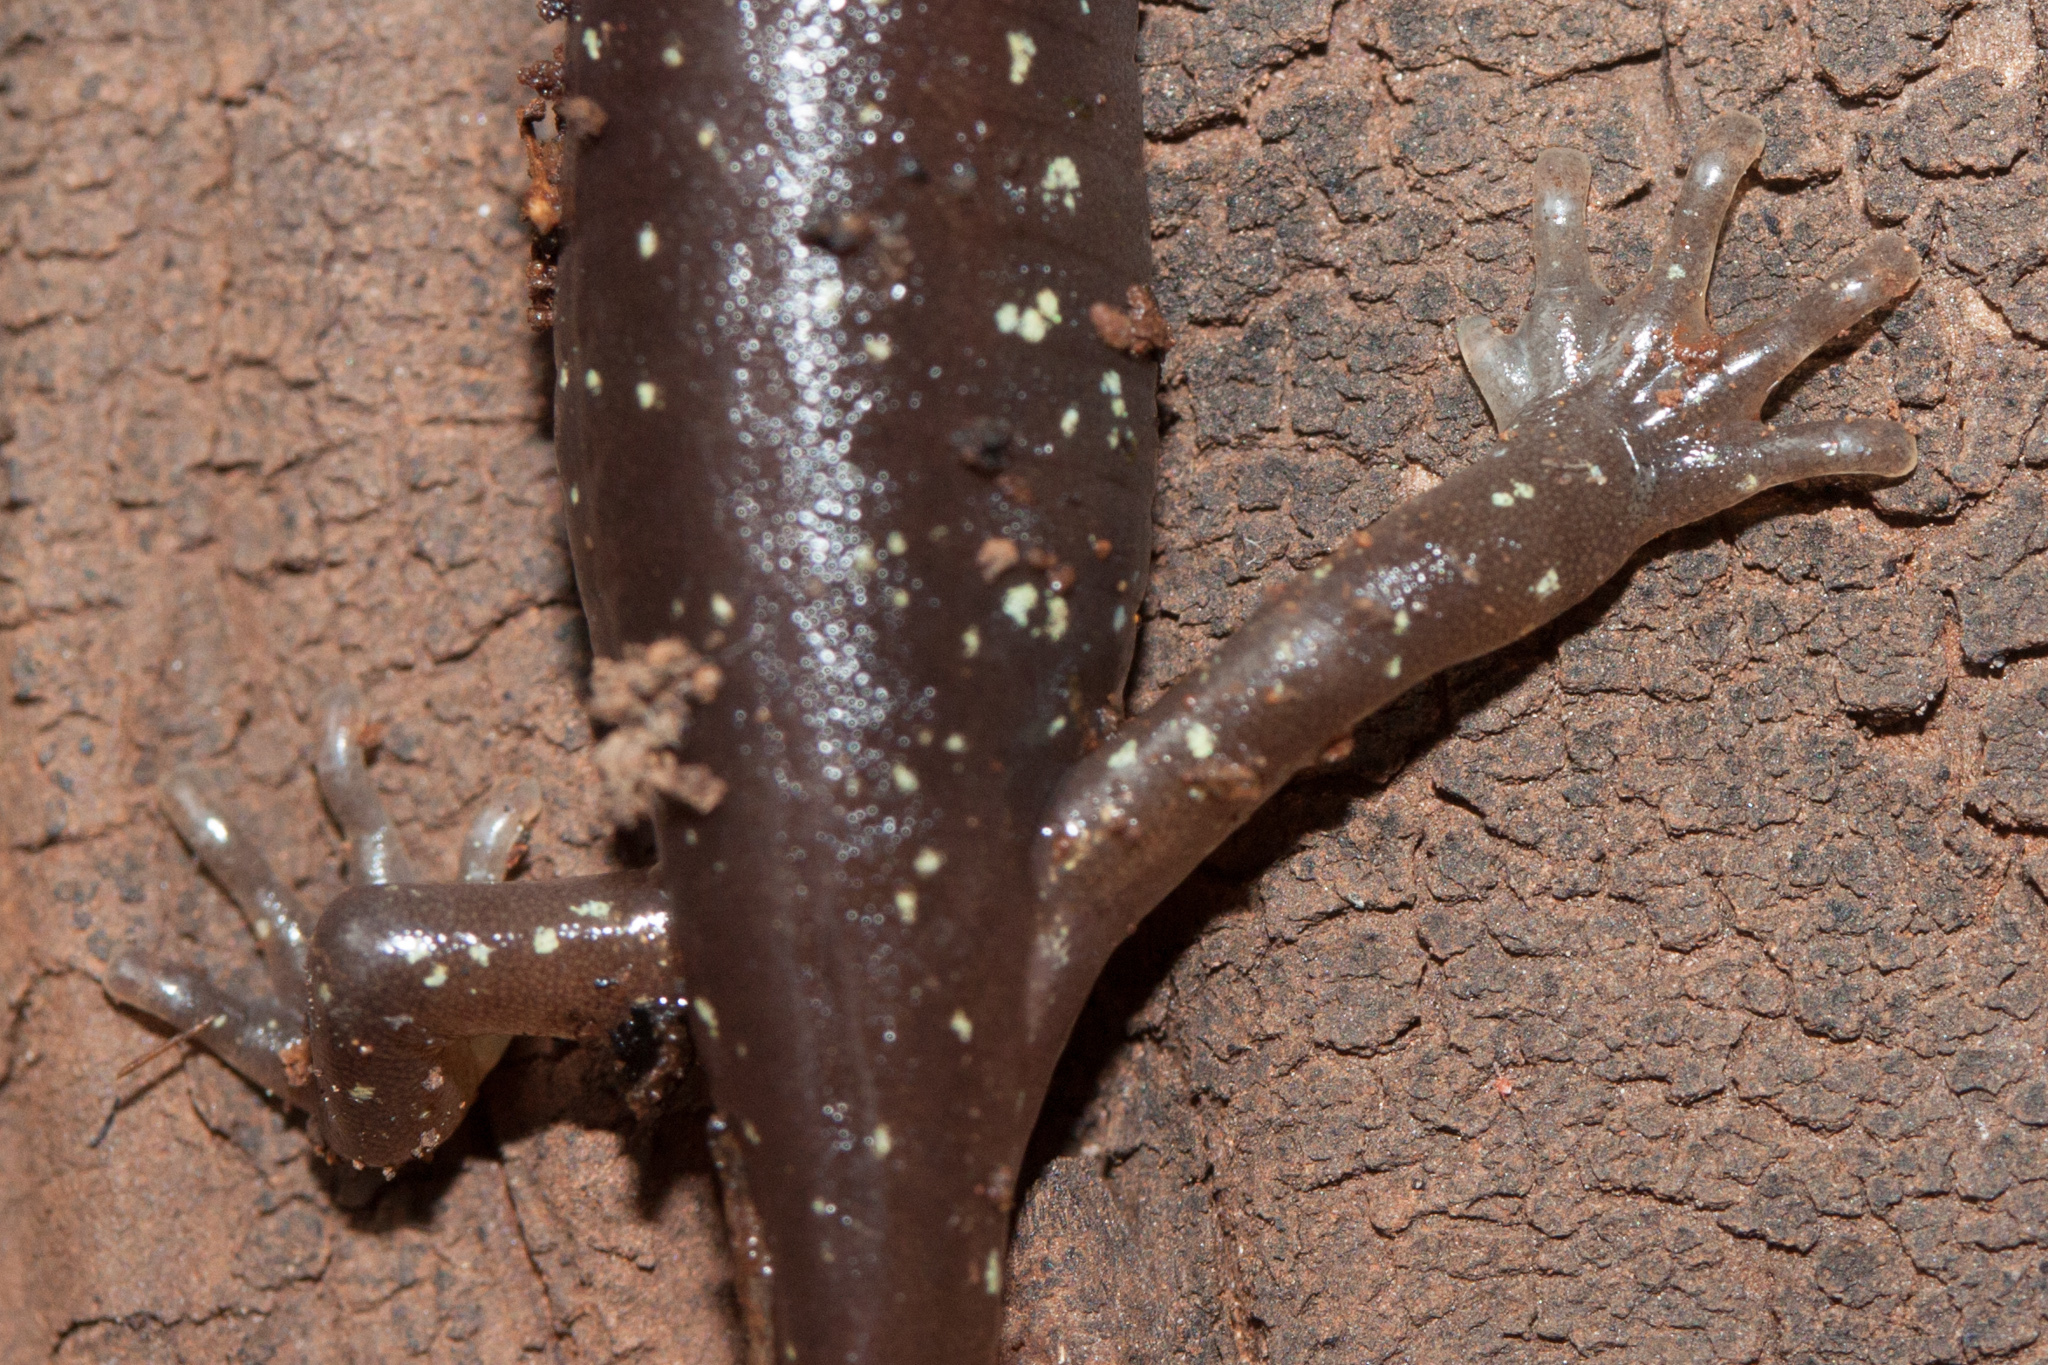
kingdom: Animalia
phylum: Chordata
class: Amphibia
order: Caudata
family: Plethodontidae
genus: Aneides
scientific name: Aneides lugubris
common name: Arboreal salamander
